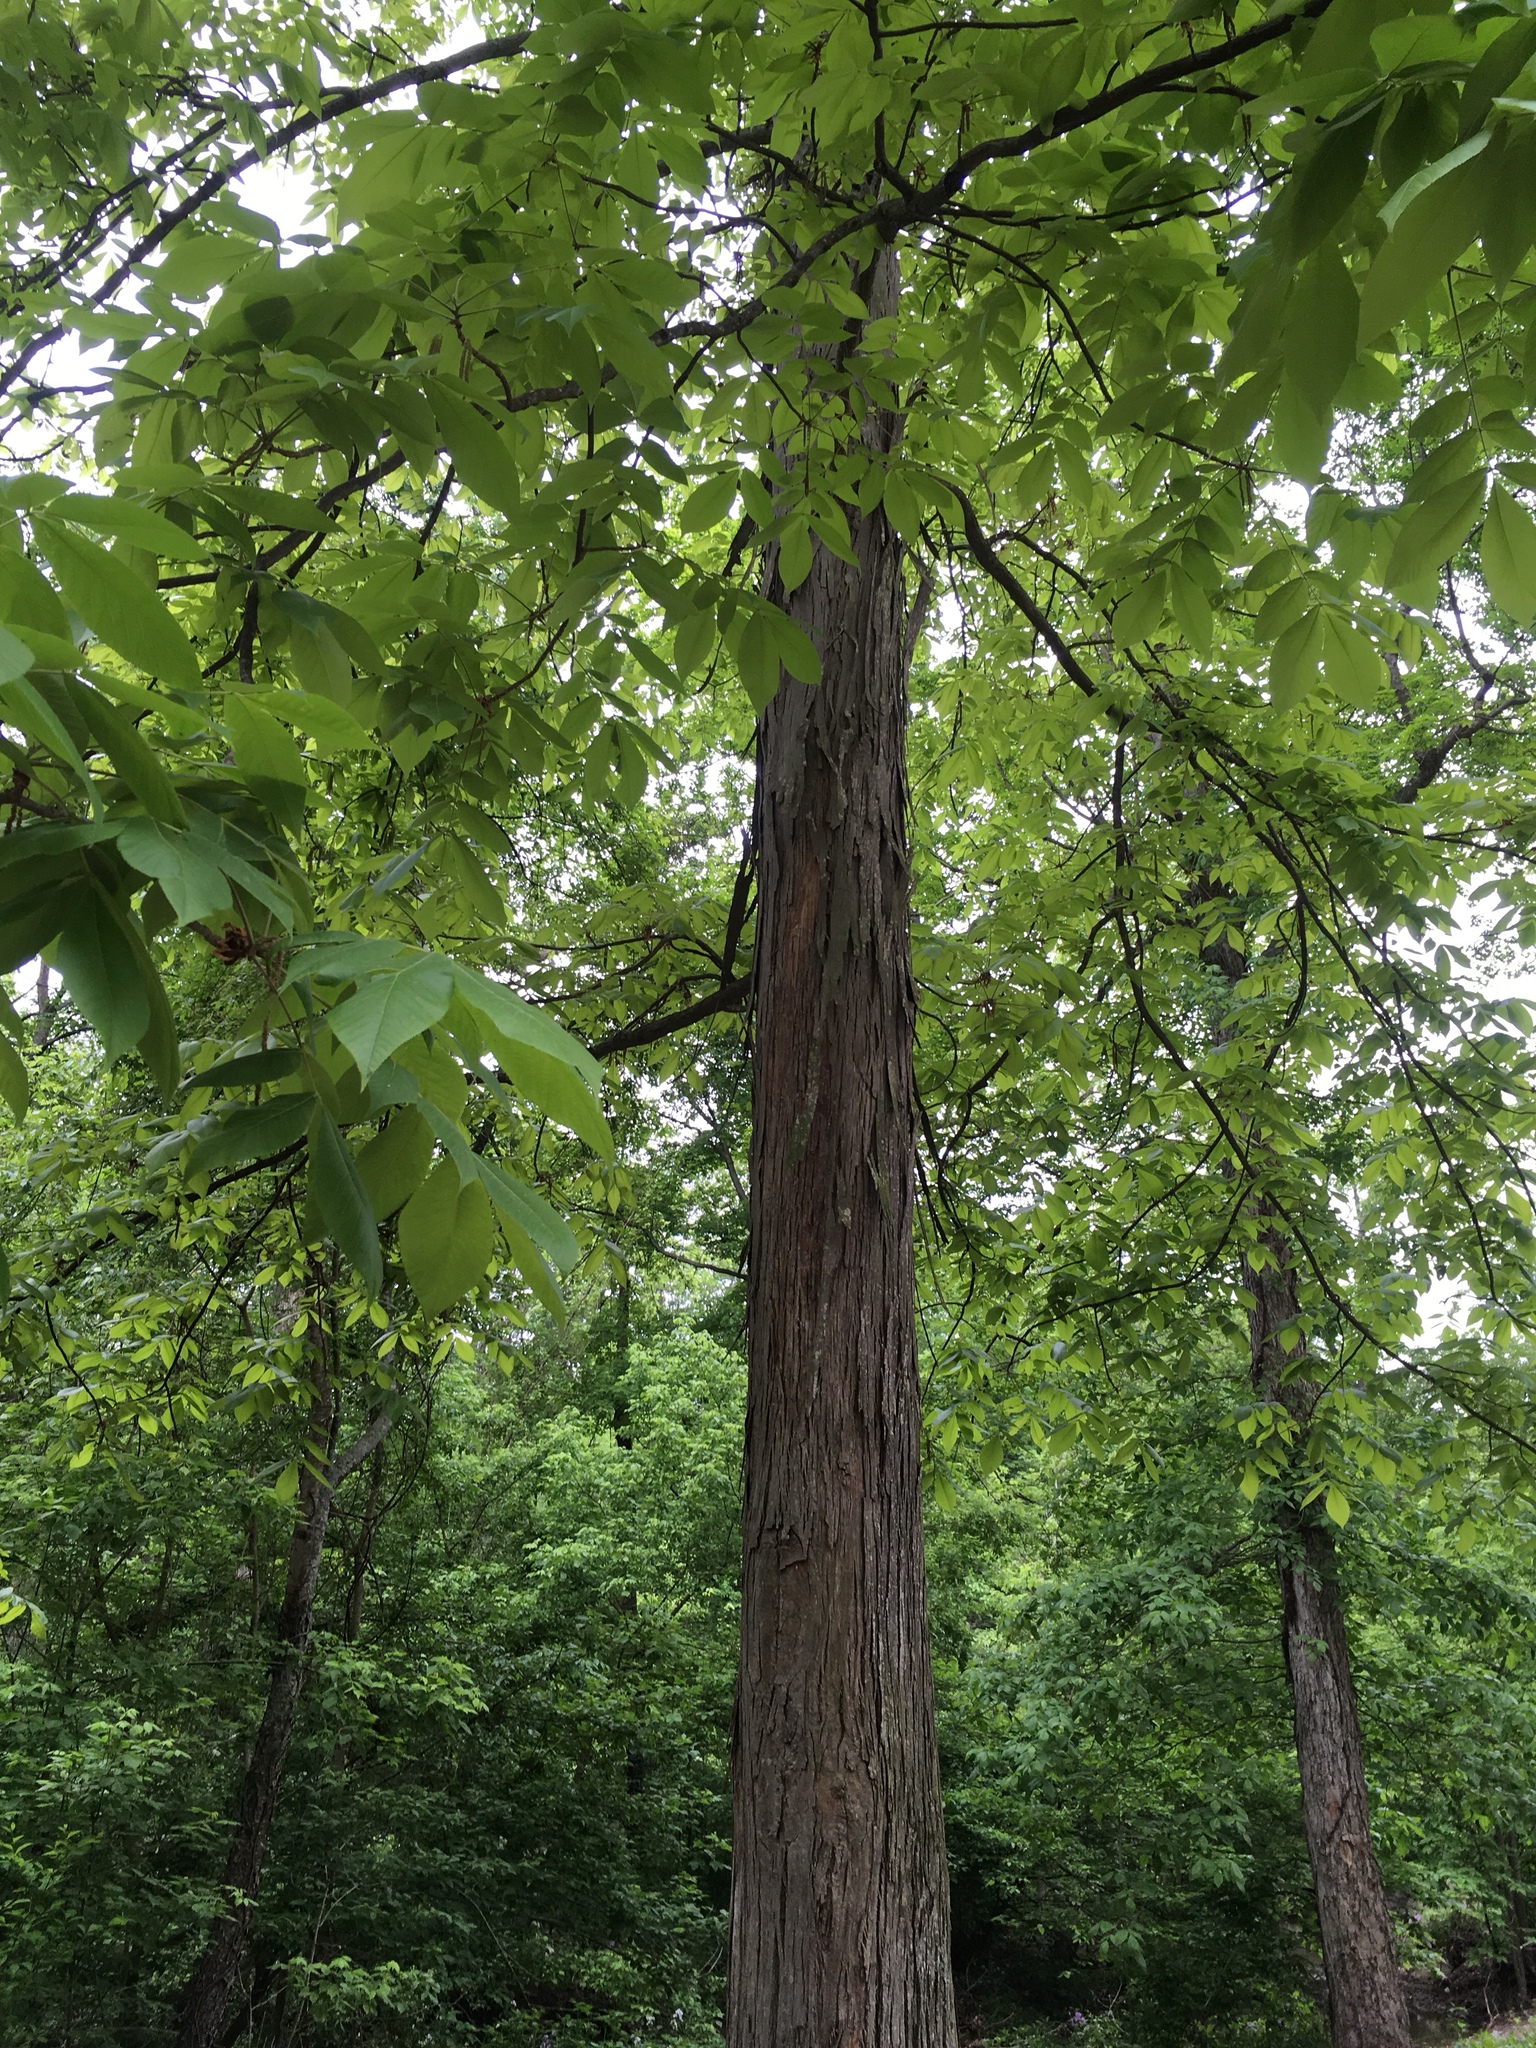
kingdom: Plantae
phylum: Tracheophyta
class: Magnoliopsida
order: Fagales
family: Juglandaceae
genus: Carya
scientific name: Carya ovata
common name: Shagbark hickory
